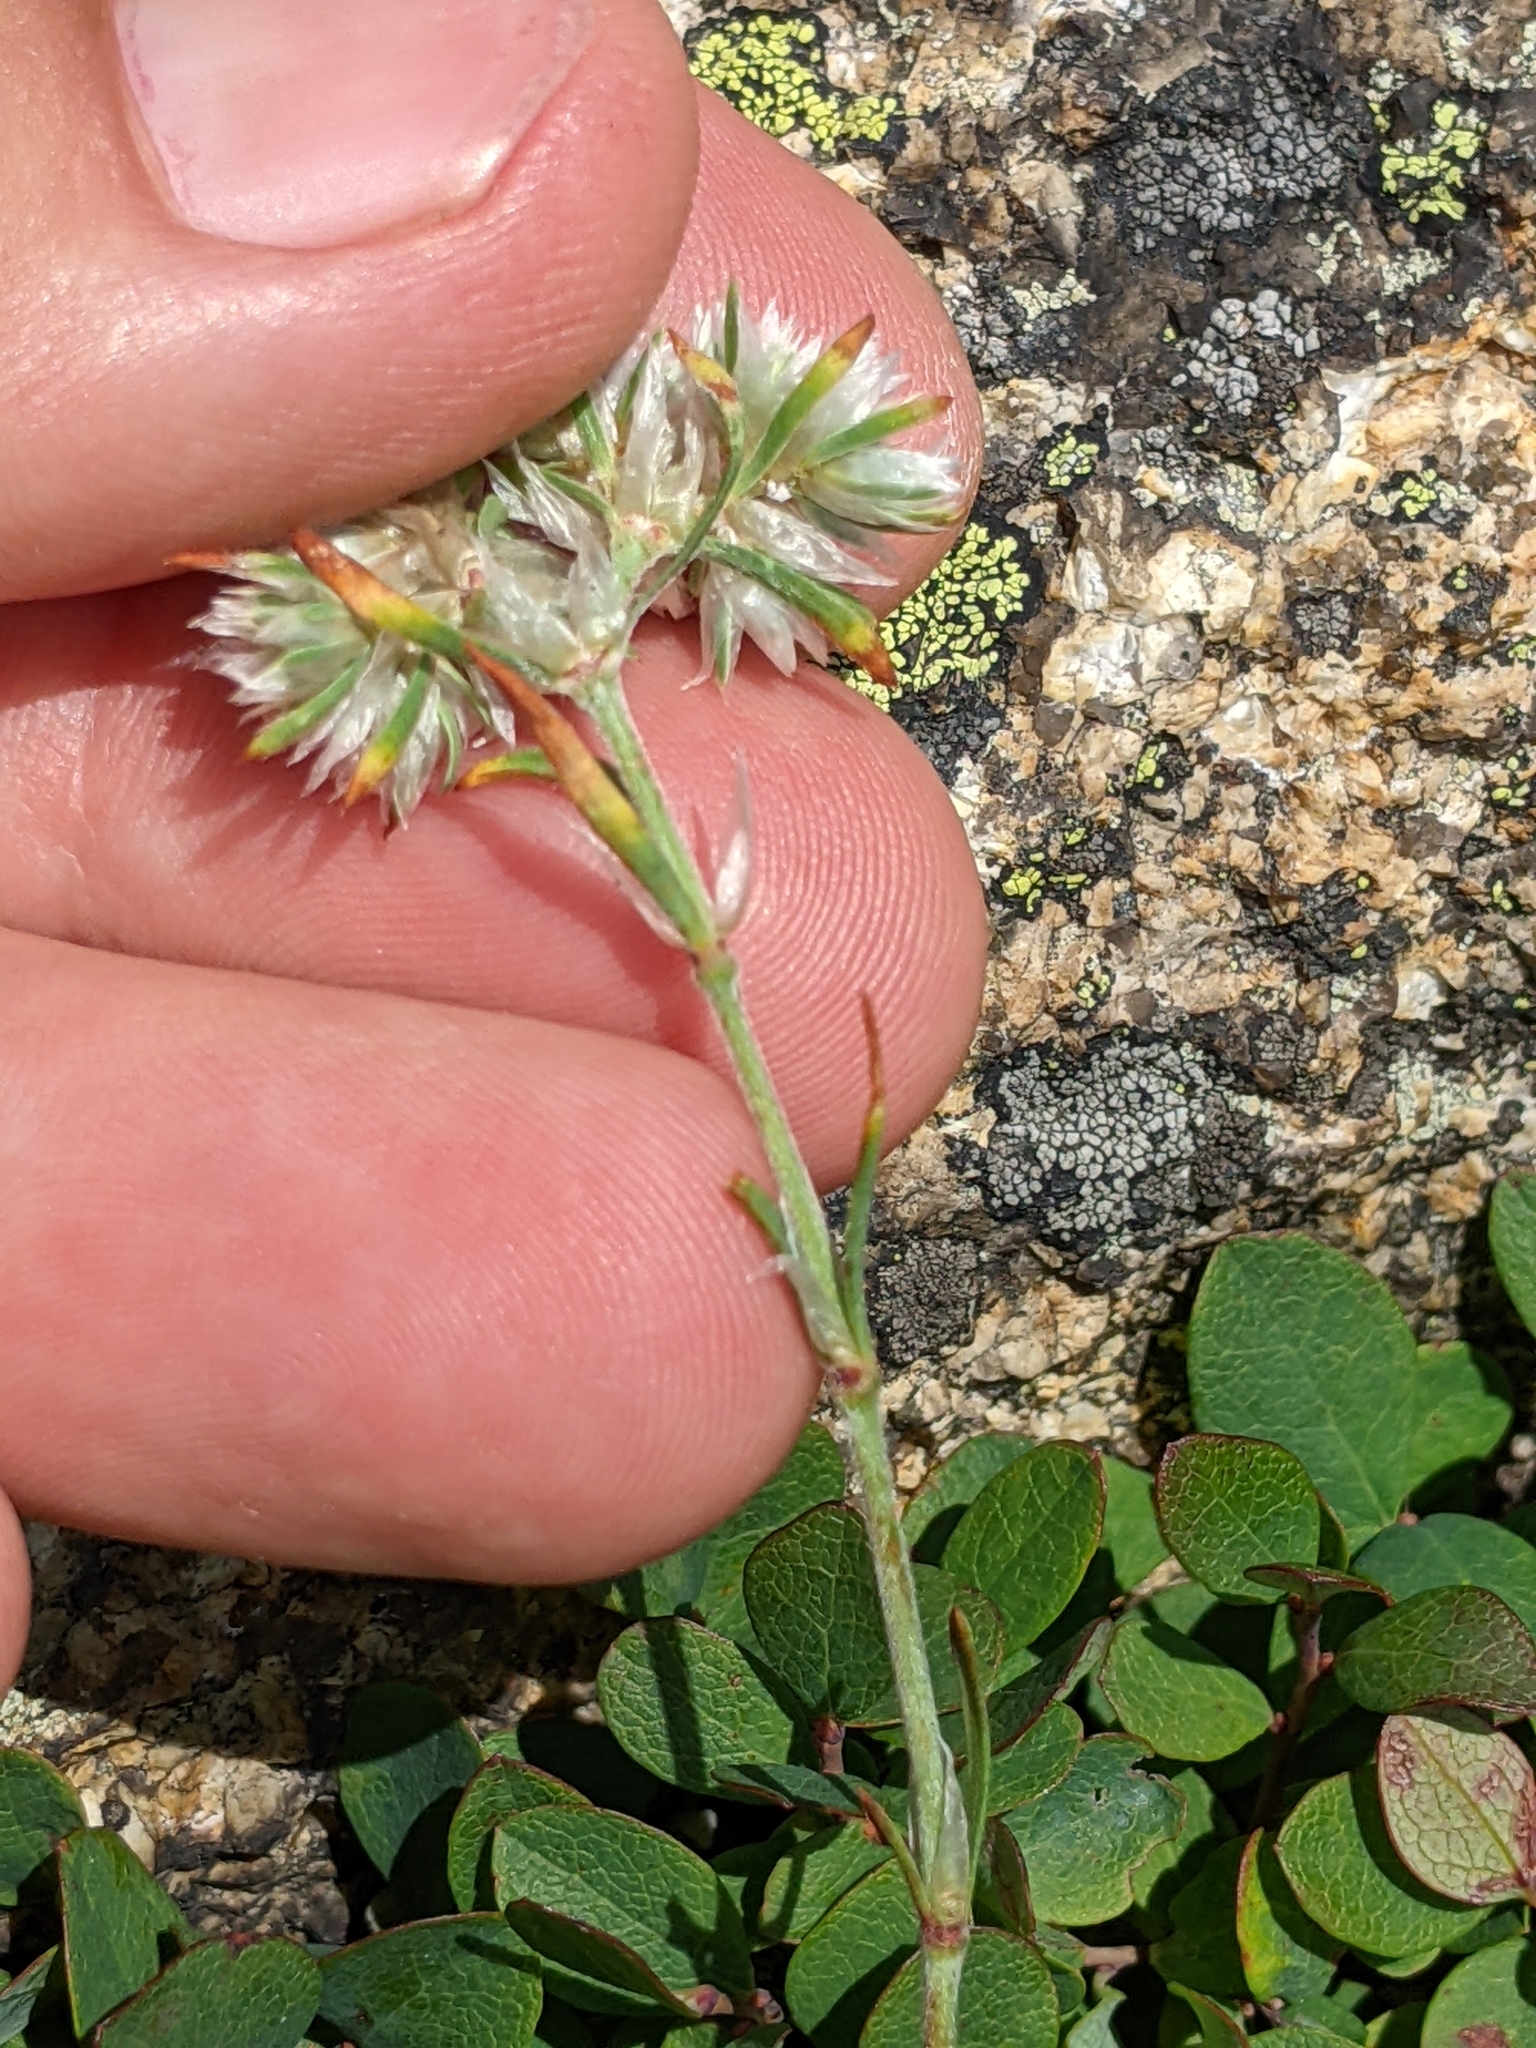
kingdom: Plantae
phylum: Tracheophyta
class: Magnoliopsida
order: Caryophyllales
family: Caryophyllaceae
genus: Paronychia
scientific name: Paronychia argyrocoma
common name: Silverling
